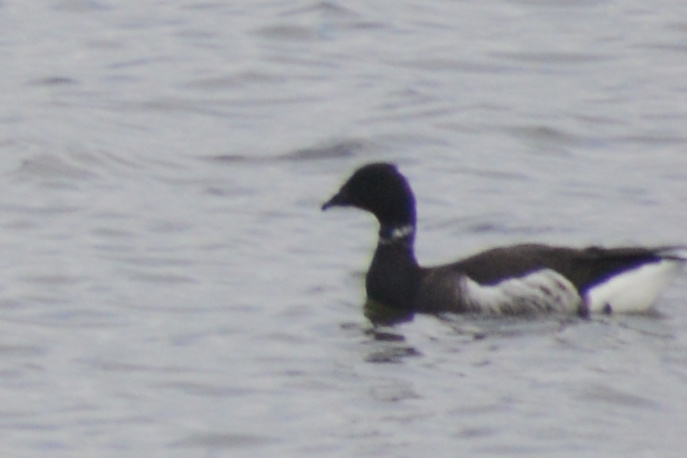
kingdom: Animalia
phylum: Chordata
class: Aves
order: Anseriformes
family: Anatidae
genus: Branta
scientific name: Branta bernicla
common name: Brant goose
